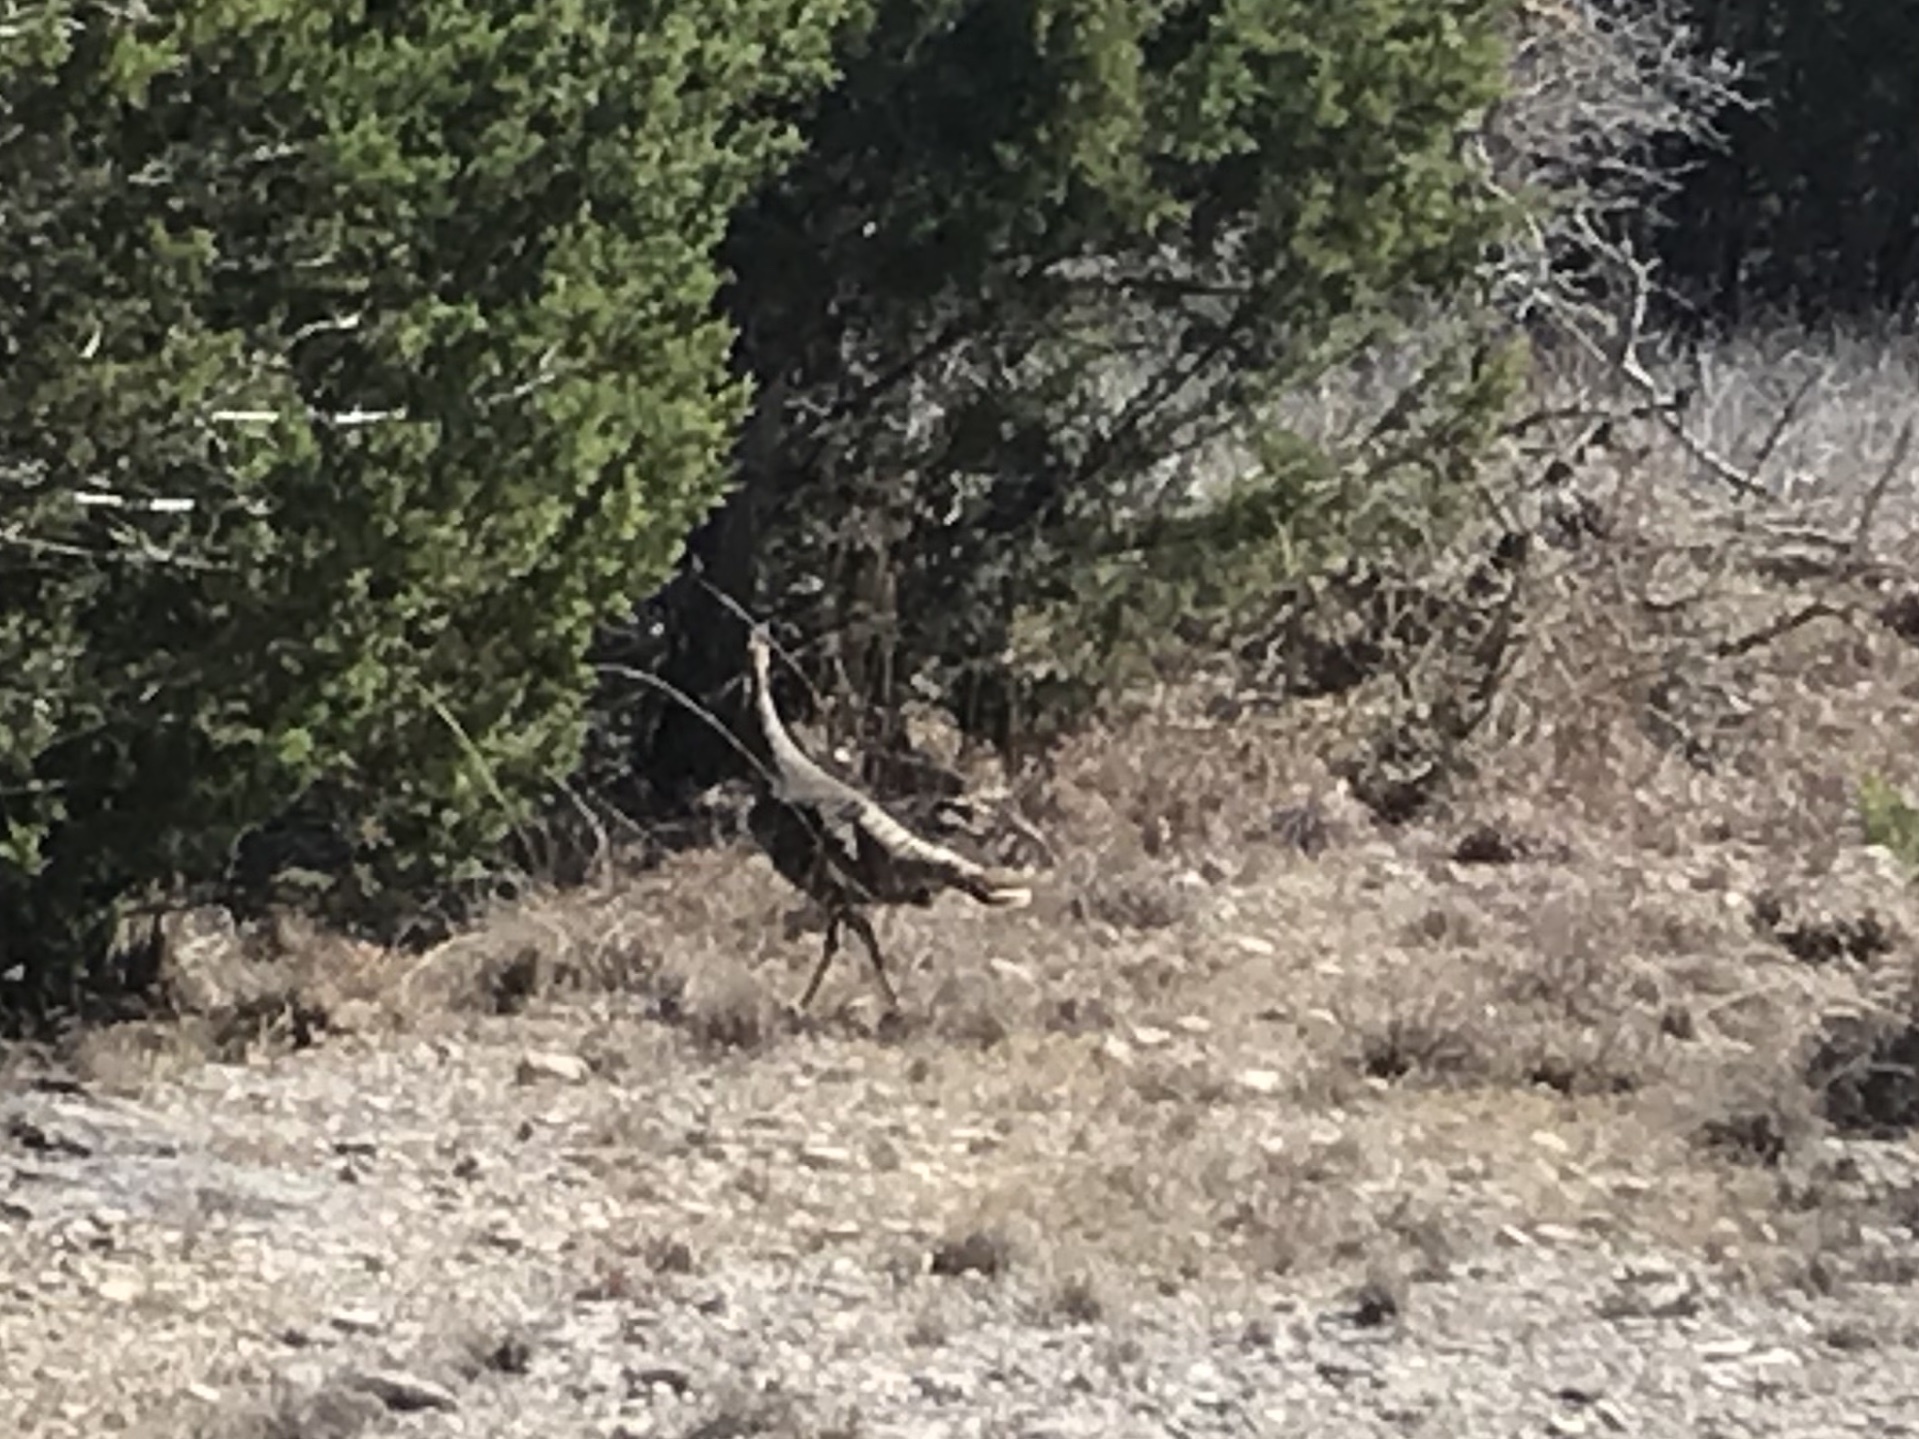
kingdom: Animalia
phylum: Chordata
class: Aves
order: Galliformes
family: Phasianidae
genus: Meleagris
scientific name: Meleagris gallopavo
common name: Wild turkey
